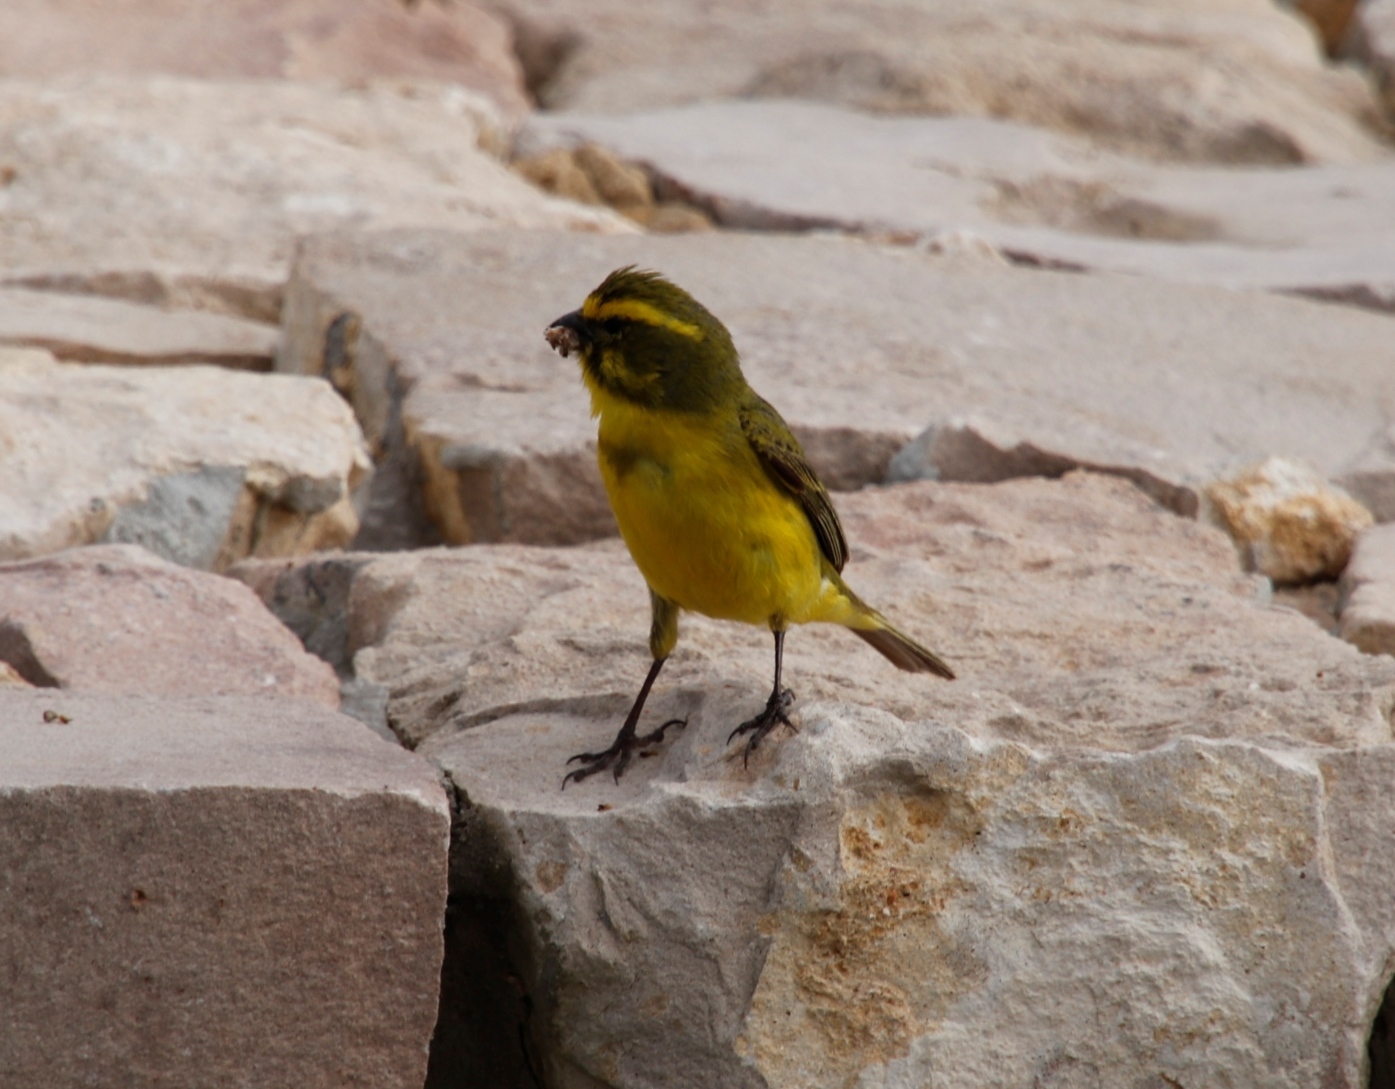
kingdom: Animalia
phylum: Chordata
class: Aves
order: Passeriformes
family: Fringillidae
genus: Crithagra
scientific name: Crithagra flaviventris
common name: Yellow canary
